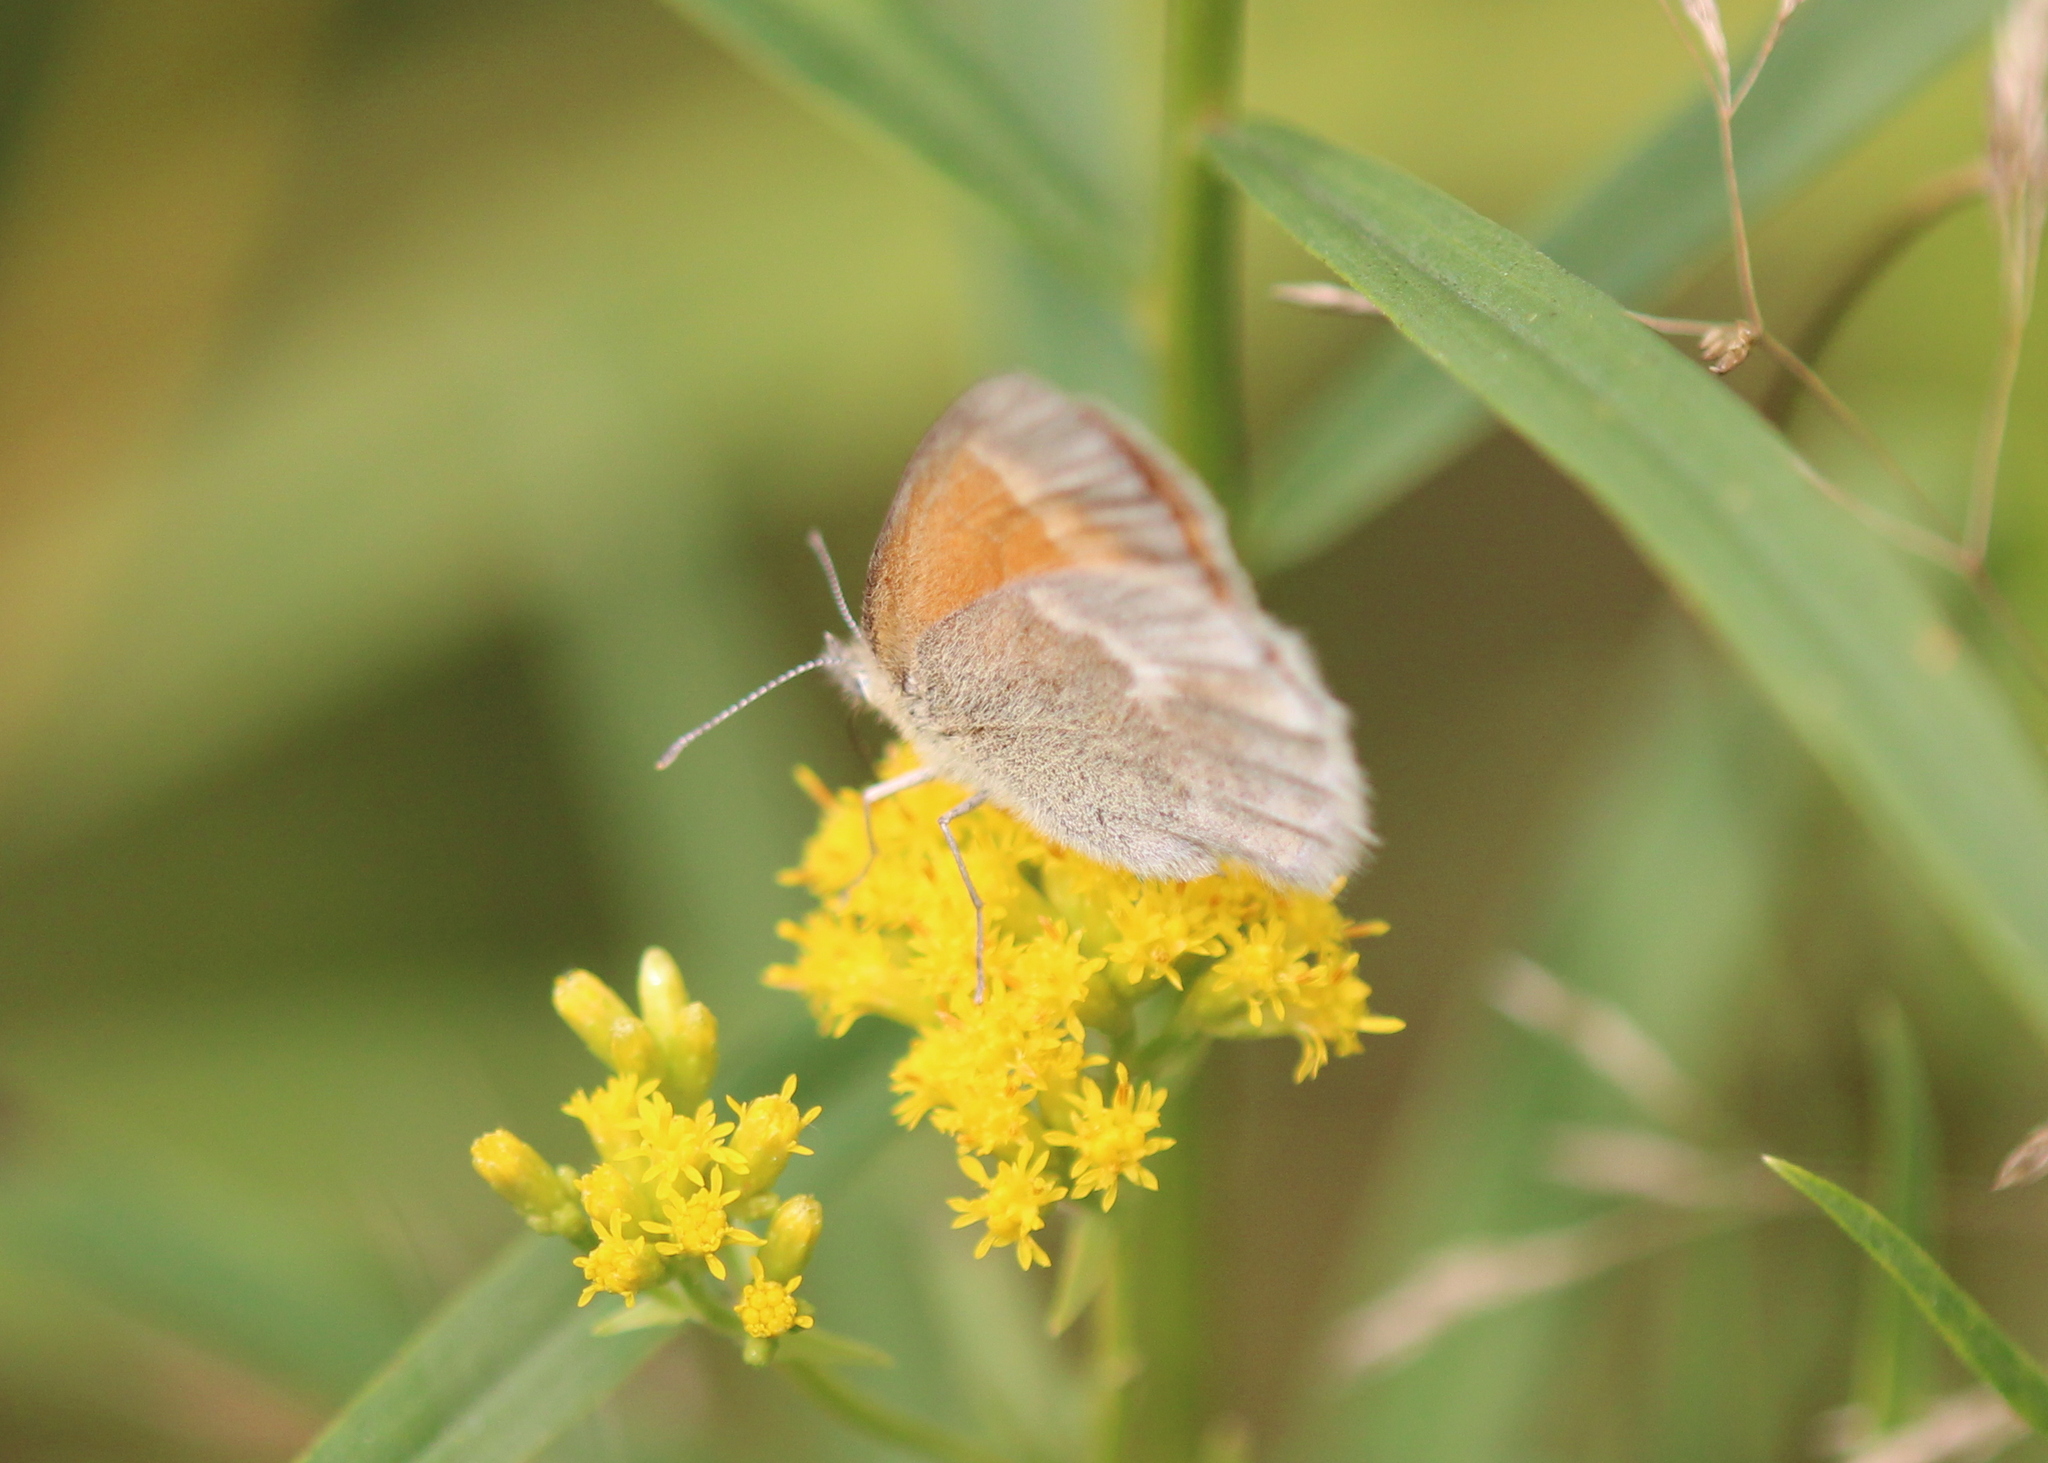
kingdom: Animalia
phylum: Arthropoda
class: Insecta
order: Lepidoptera
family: Nymphalidae
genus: Coenonympha
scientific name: Coenonympha california
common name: Common ringlet
